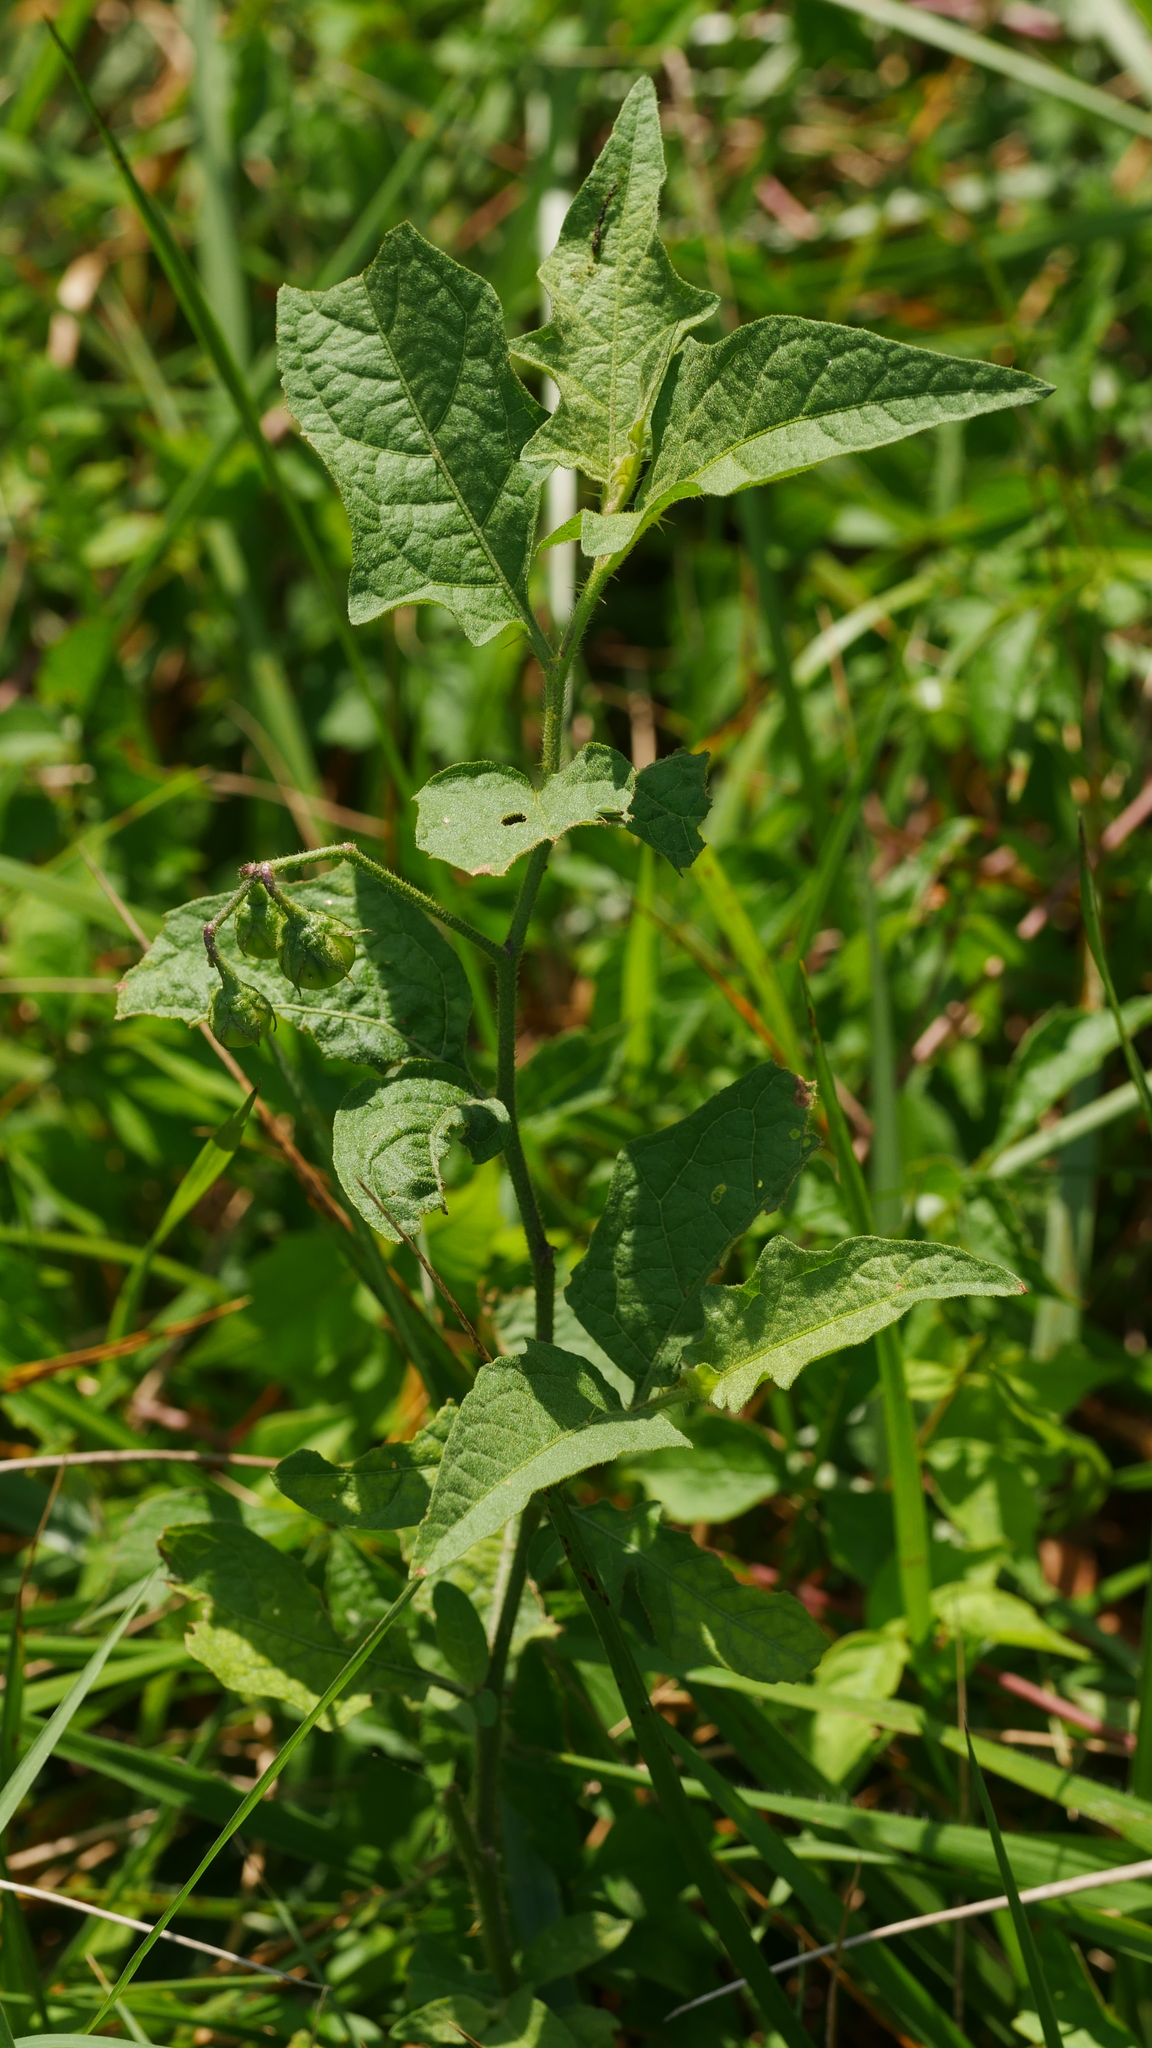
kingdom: Plantae
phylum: Tracheophyta
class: Magnoliopsida
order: Solanales
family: Solanaceae
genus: Solanum
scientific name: Solanum carolinense
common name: Horse-nettle
